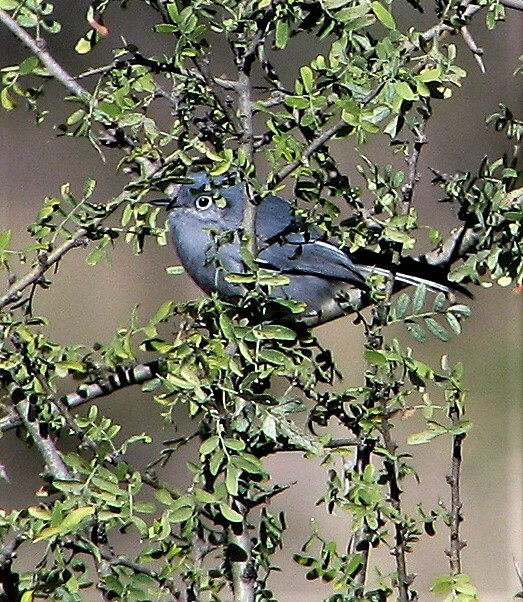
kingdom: Animalia
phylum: Chordata
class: Aves
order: Passeriformes
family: Polioptilidae
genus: Polioptila
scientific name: Polioptila dumicola
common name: Masked gnatcatcher
